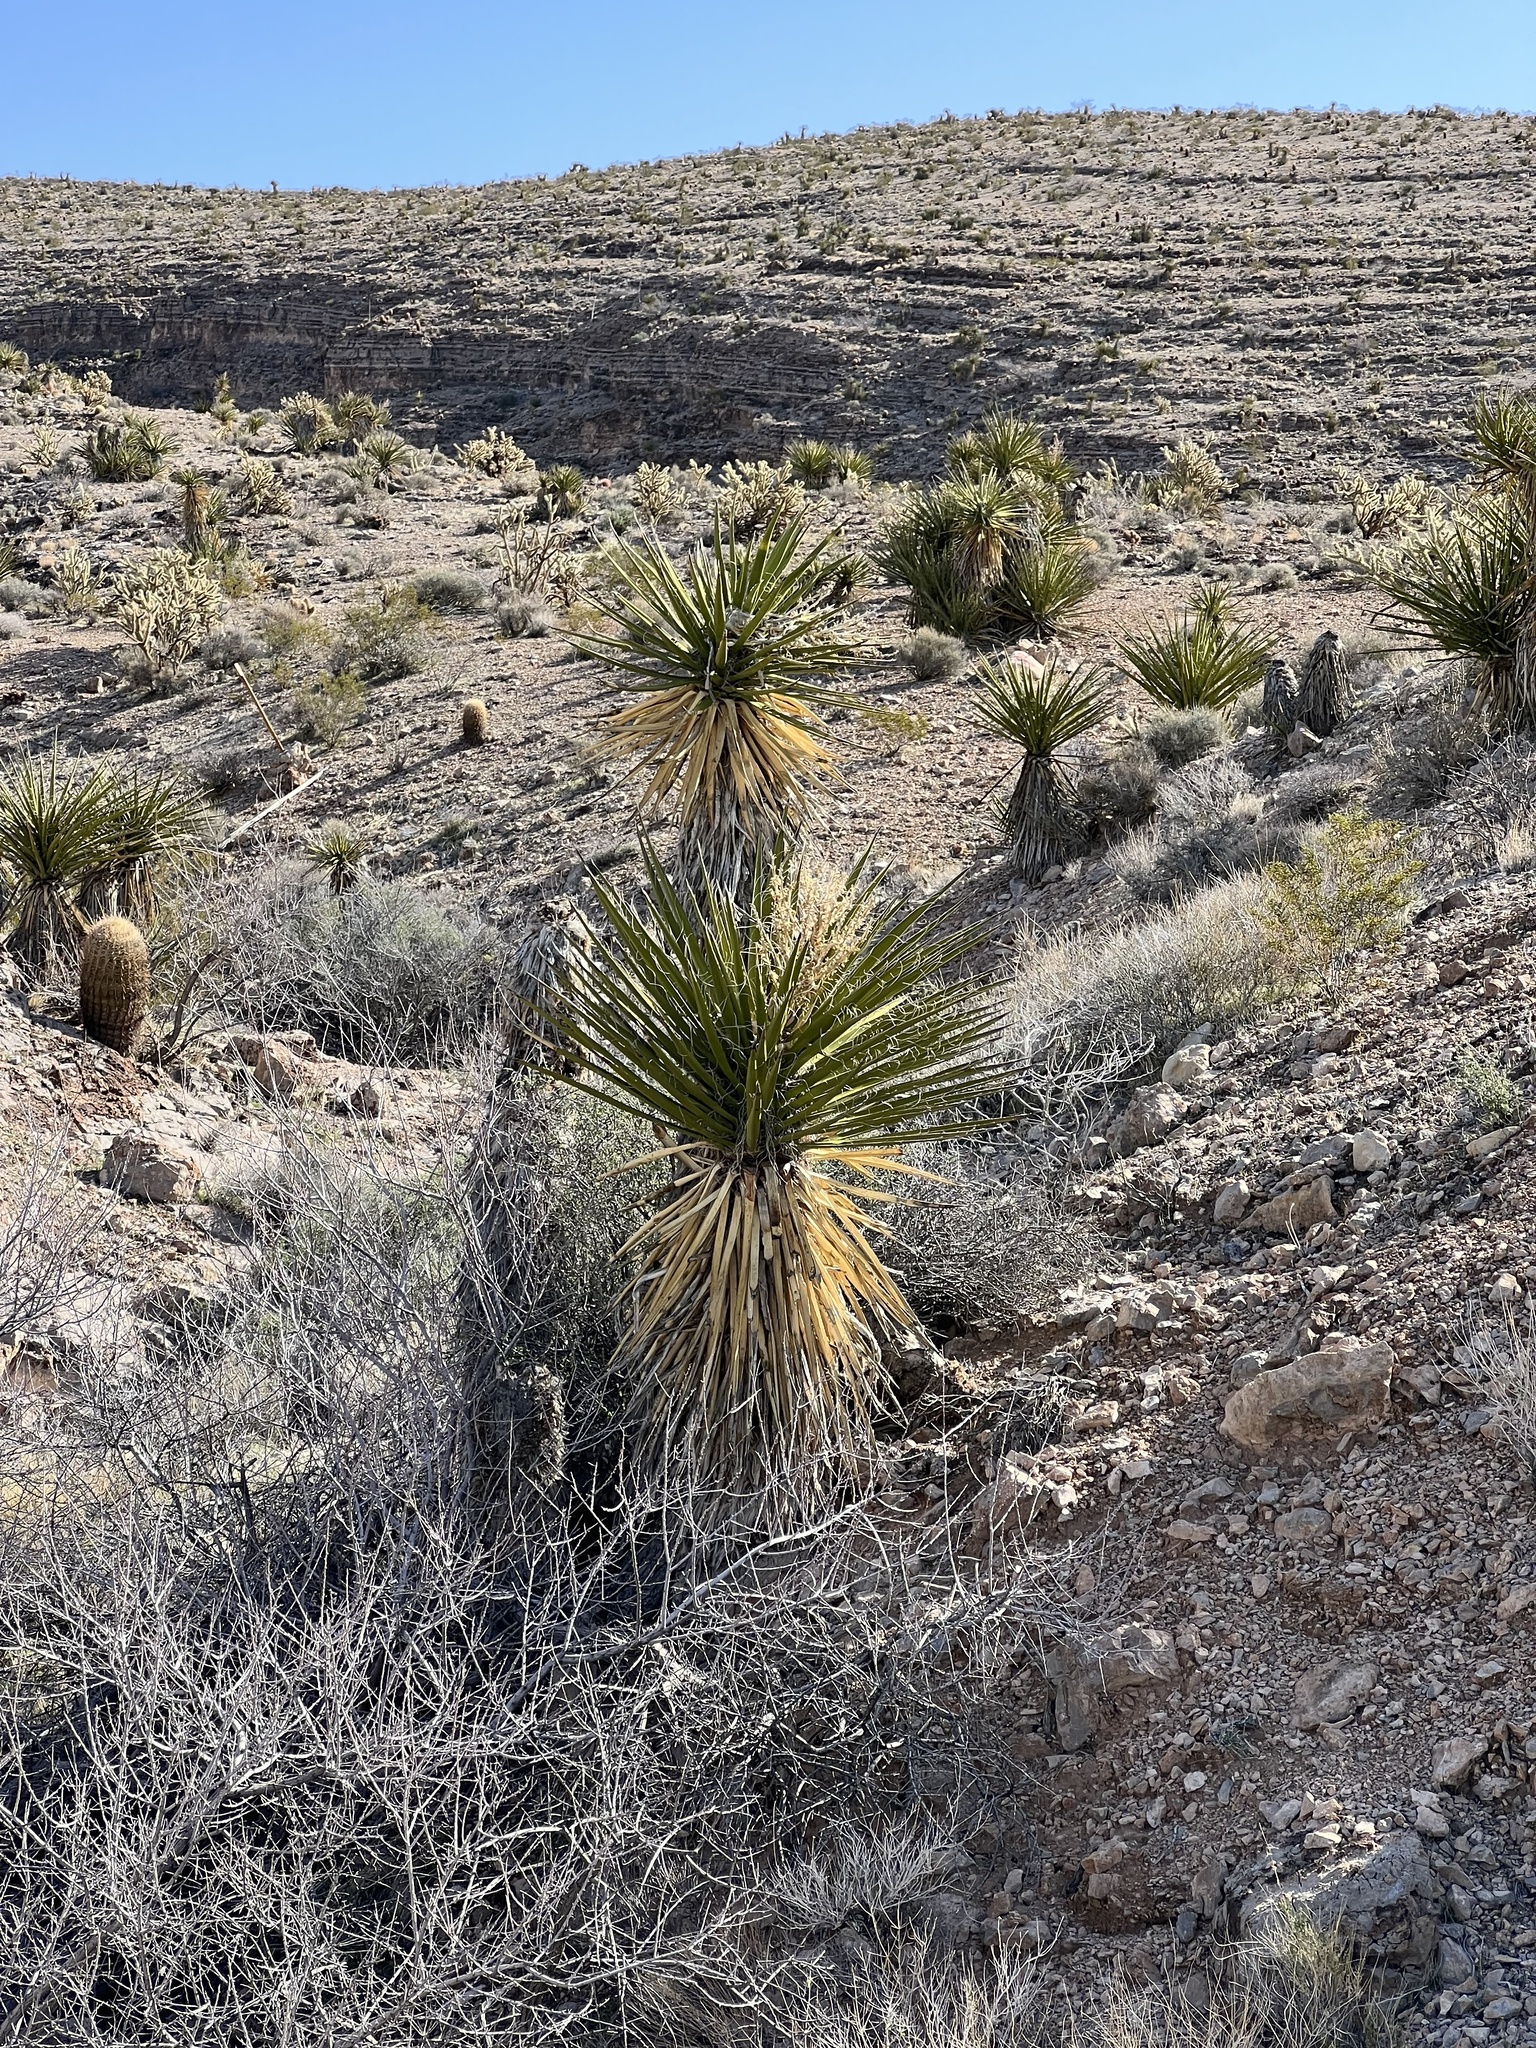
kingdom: Plantae
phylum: Tracheophyta
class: Liliopsida
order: Asparagales
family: Asparagaceae
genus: Yucca
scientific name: Yucca schidigera
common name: Mojave yucca
